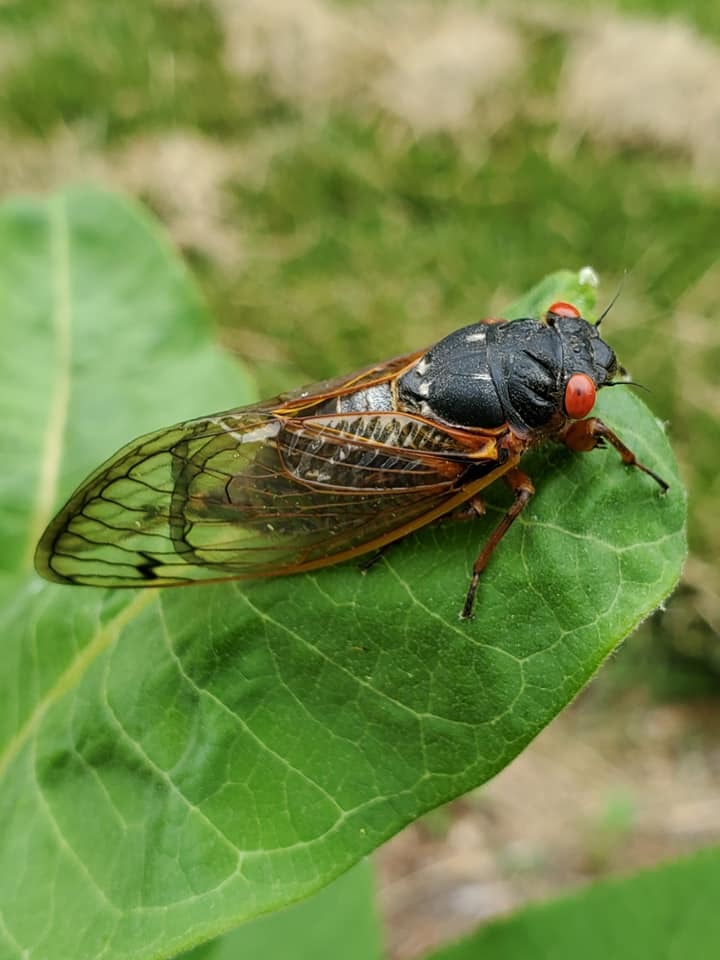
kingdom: Animalia
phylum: Arthropoda
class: Insecta
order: Hemiptera
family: Cicadidae
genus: Magicicada
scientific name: Magicicada septendecim
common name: Periodical cicada
